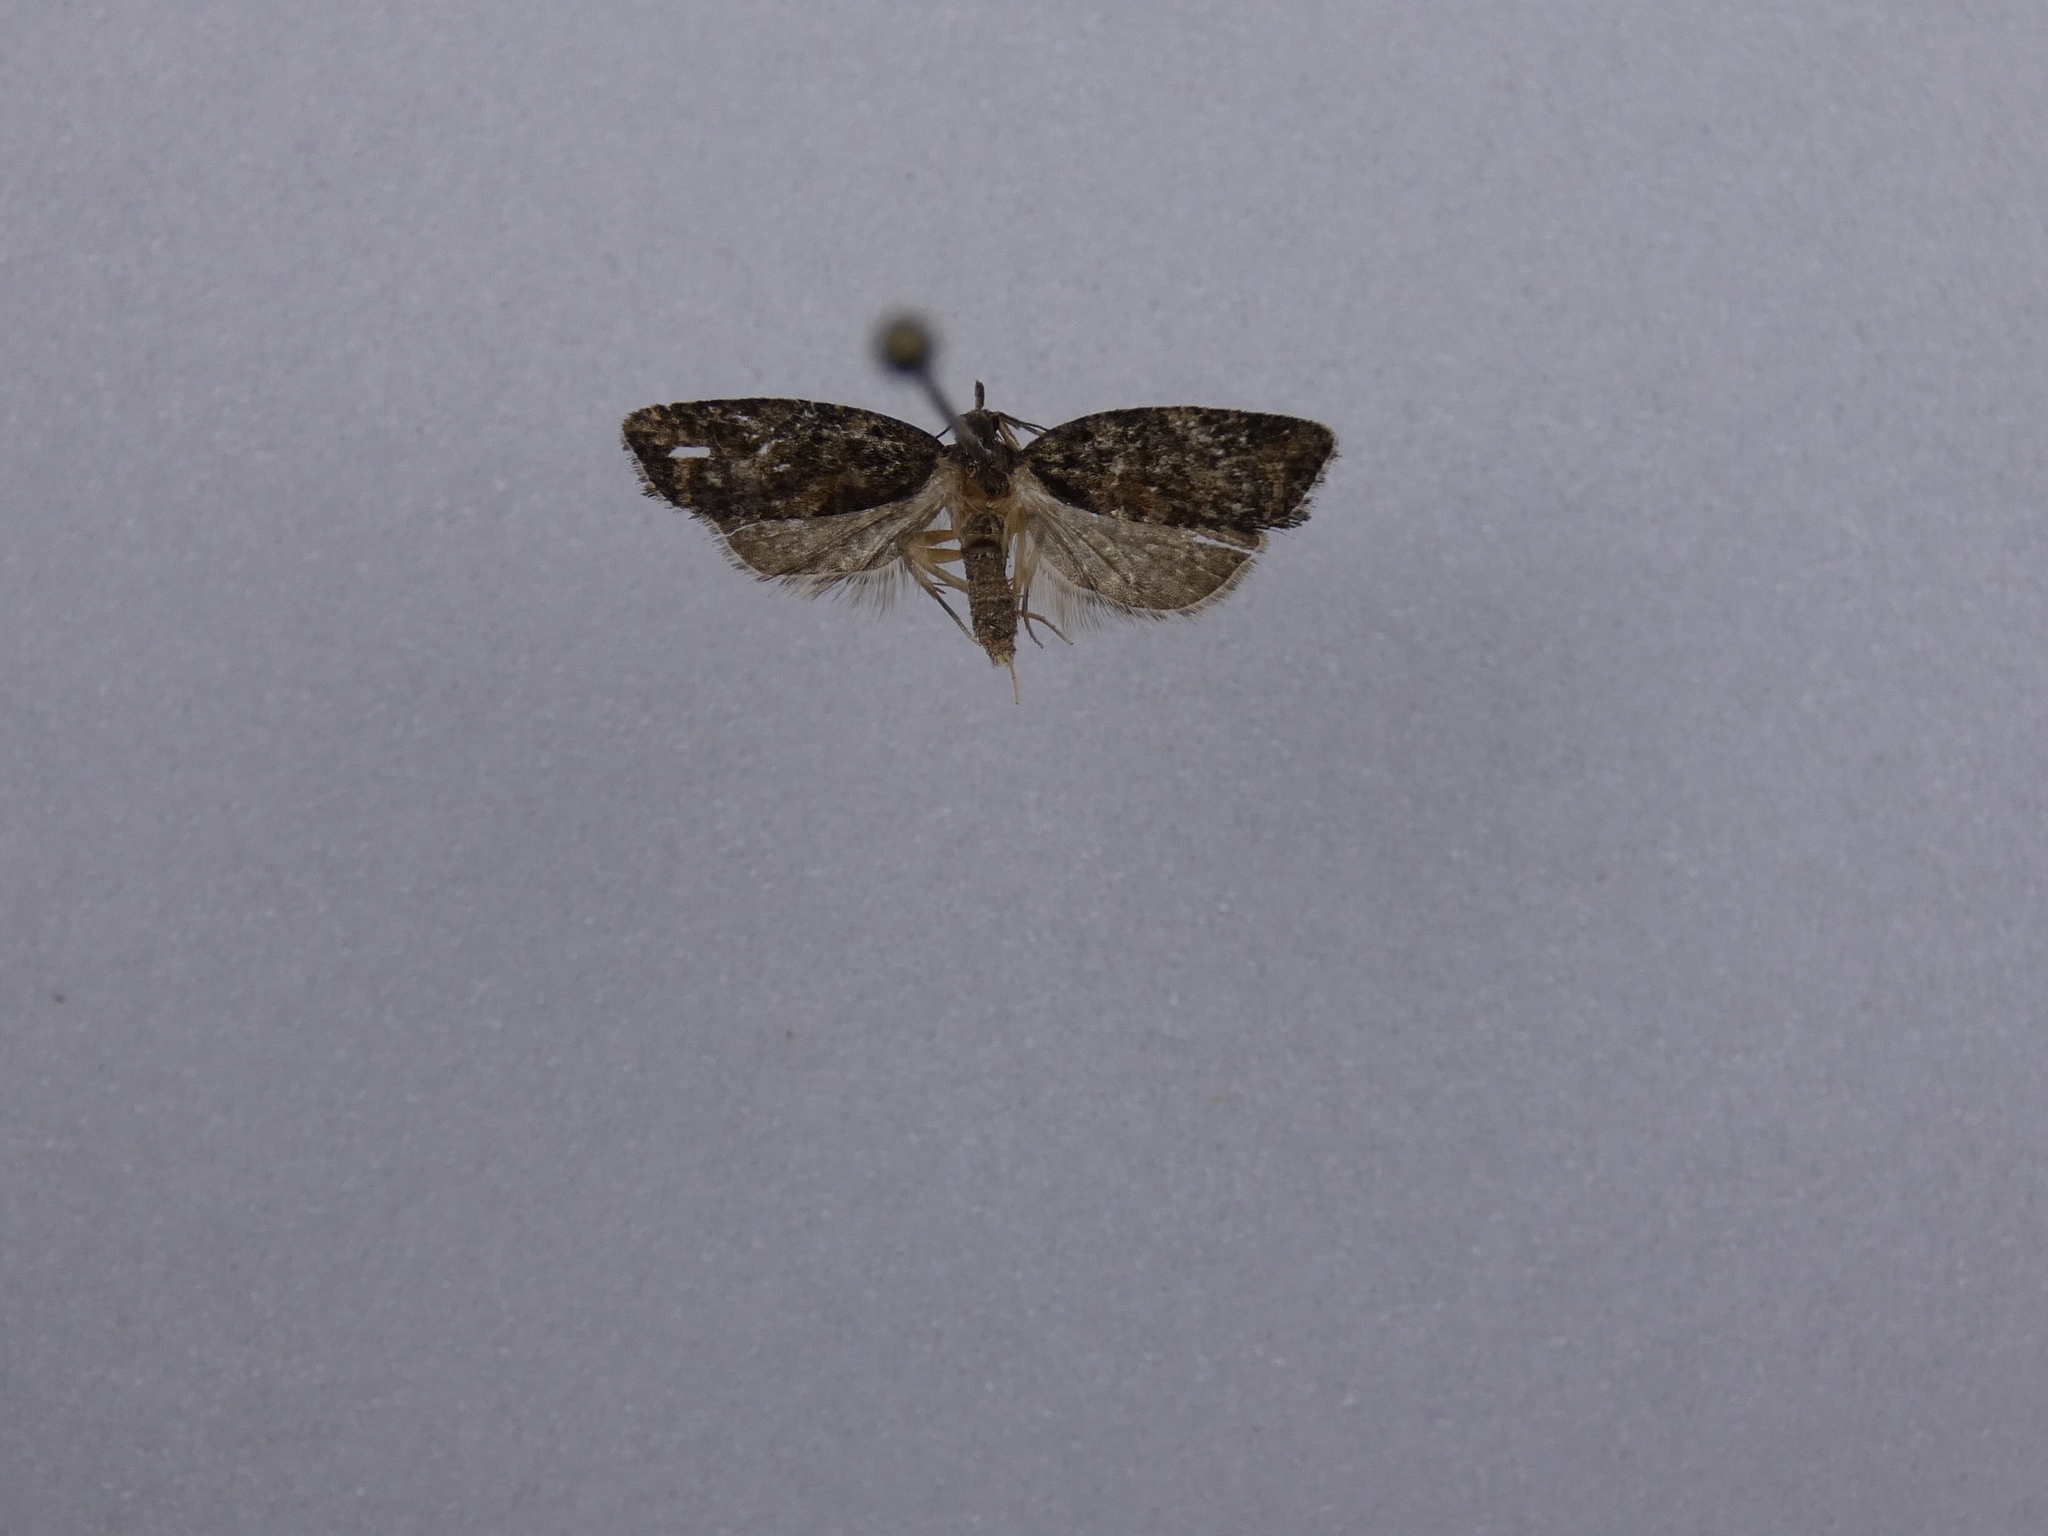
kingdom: Animalia
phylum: Arthropoda
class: Insecta
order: Lepidoptera
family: Tortricidae
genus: Capua
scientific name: Capua intractana
